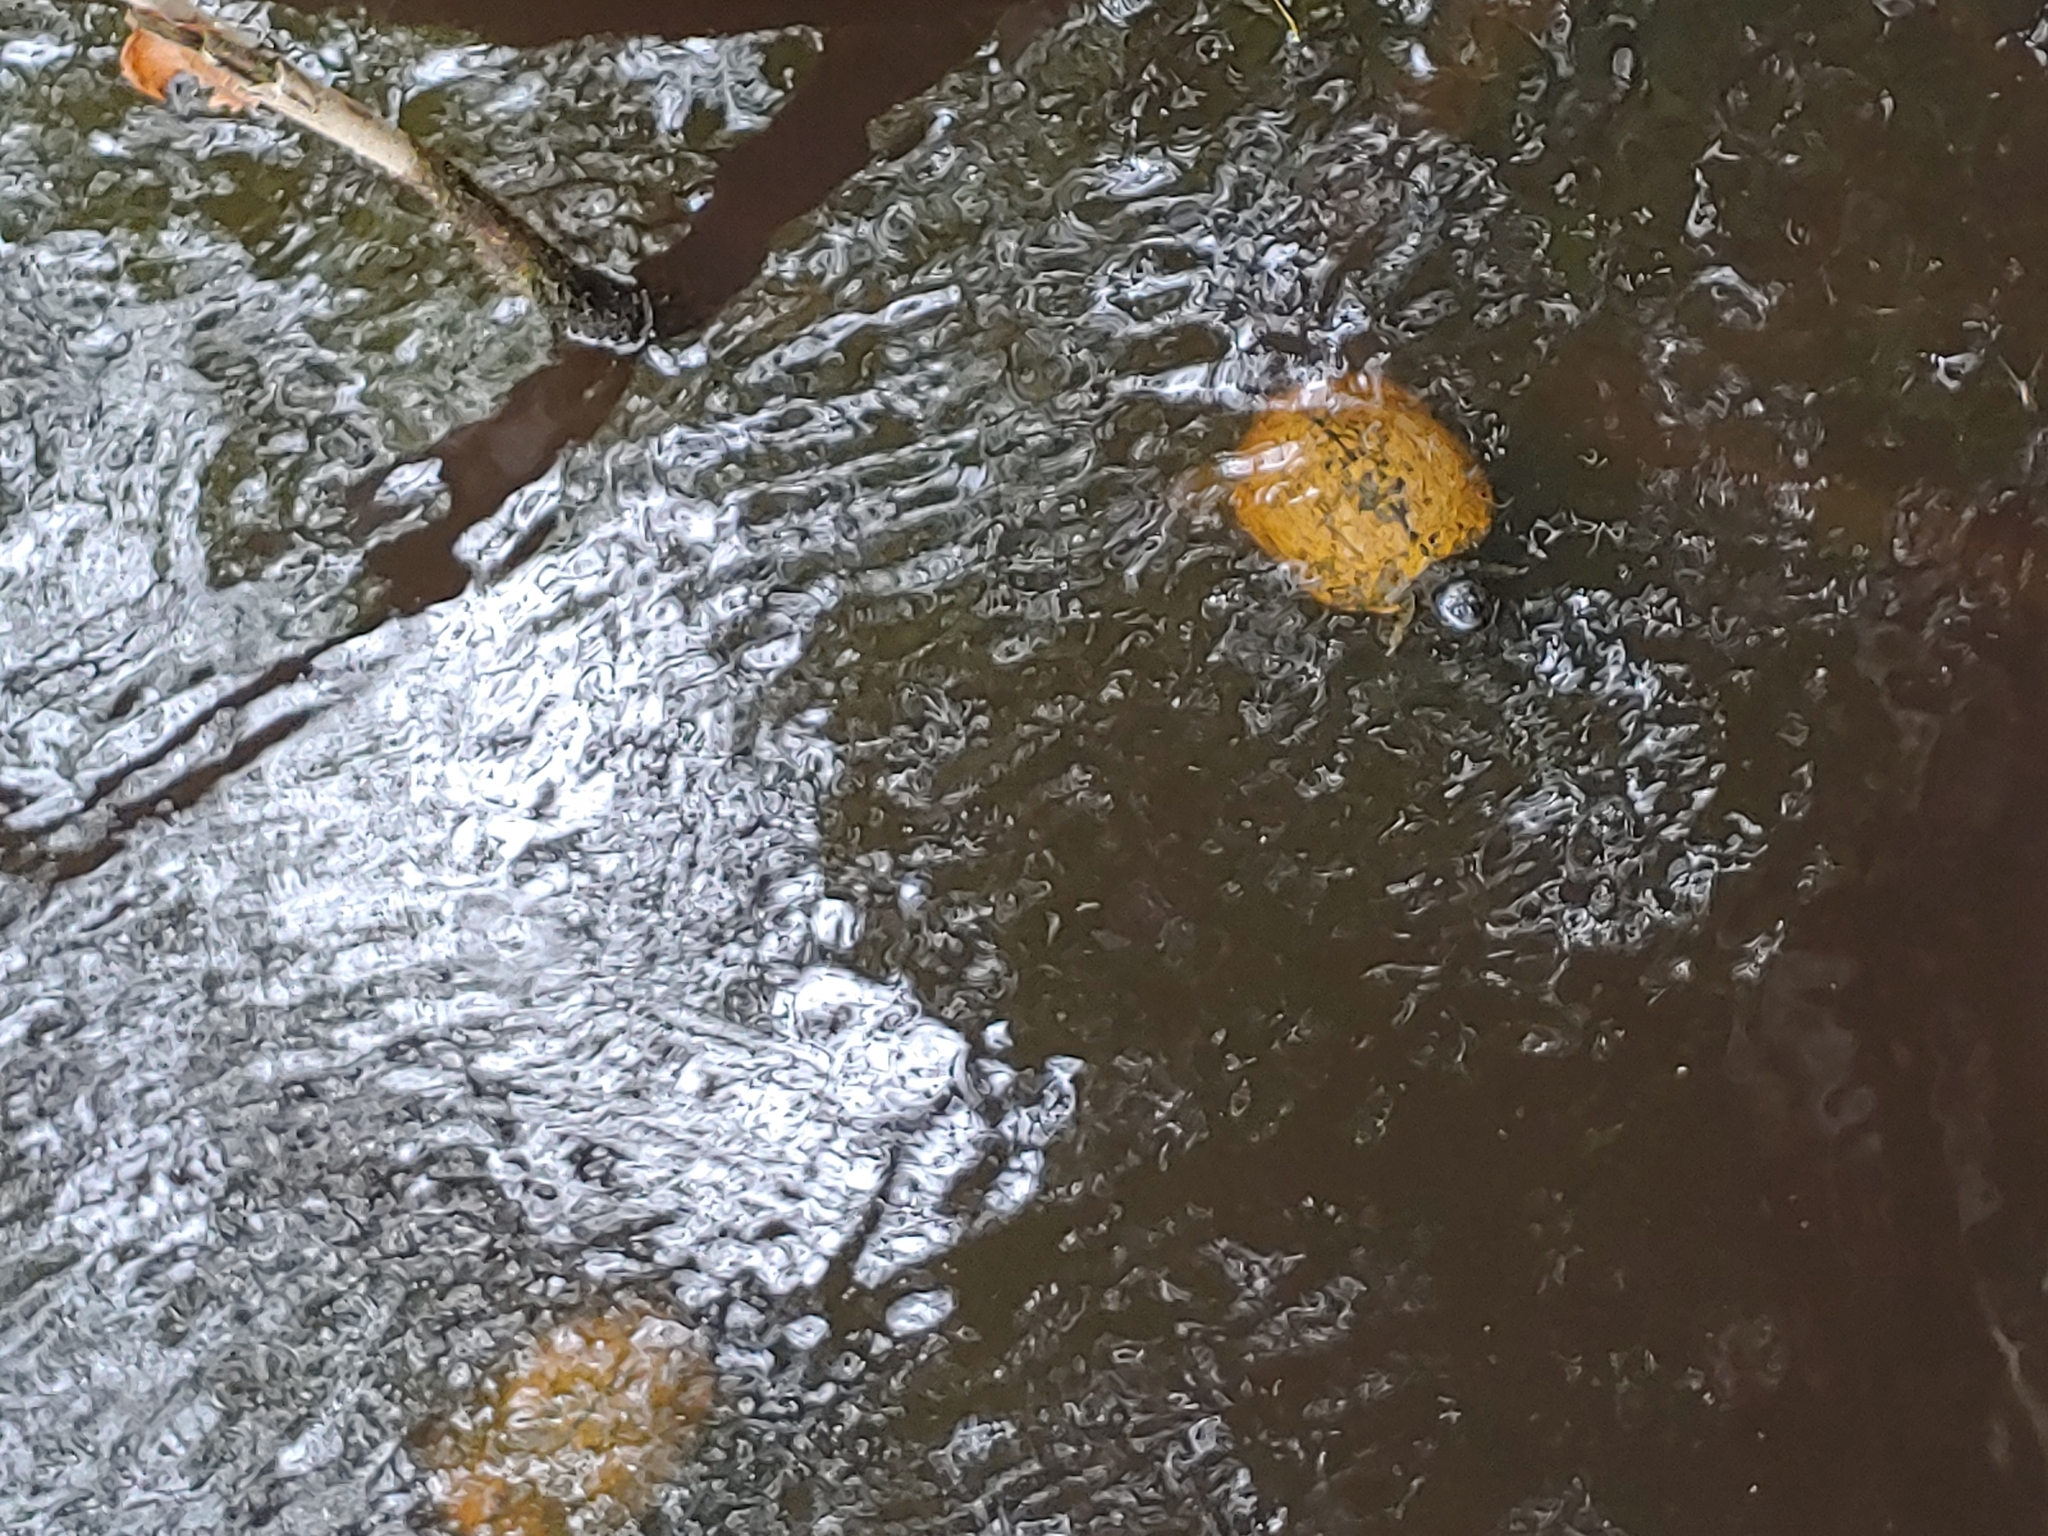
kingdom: Animalia
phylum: Chordata
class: Testudines
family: Emydidae
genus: Trachemys
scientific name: Trachemys scripta
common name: Slider
